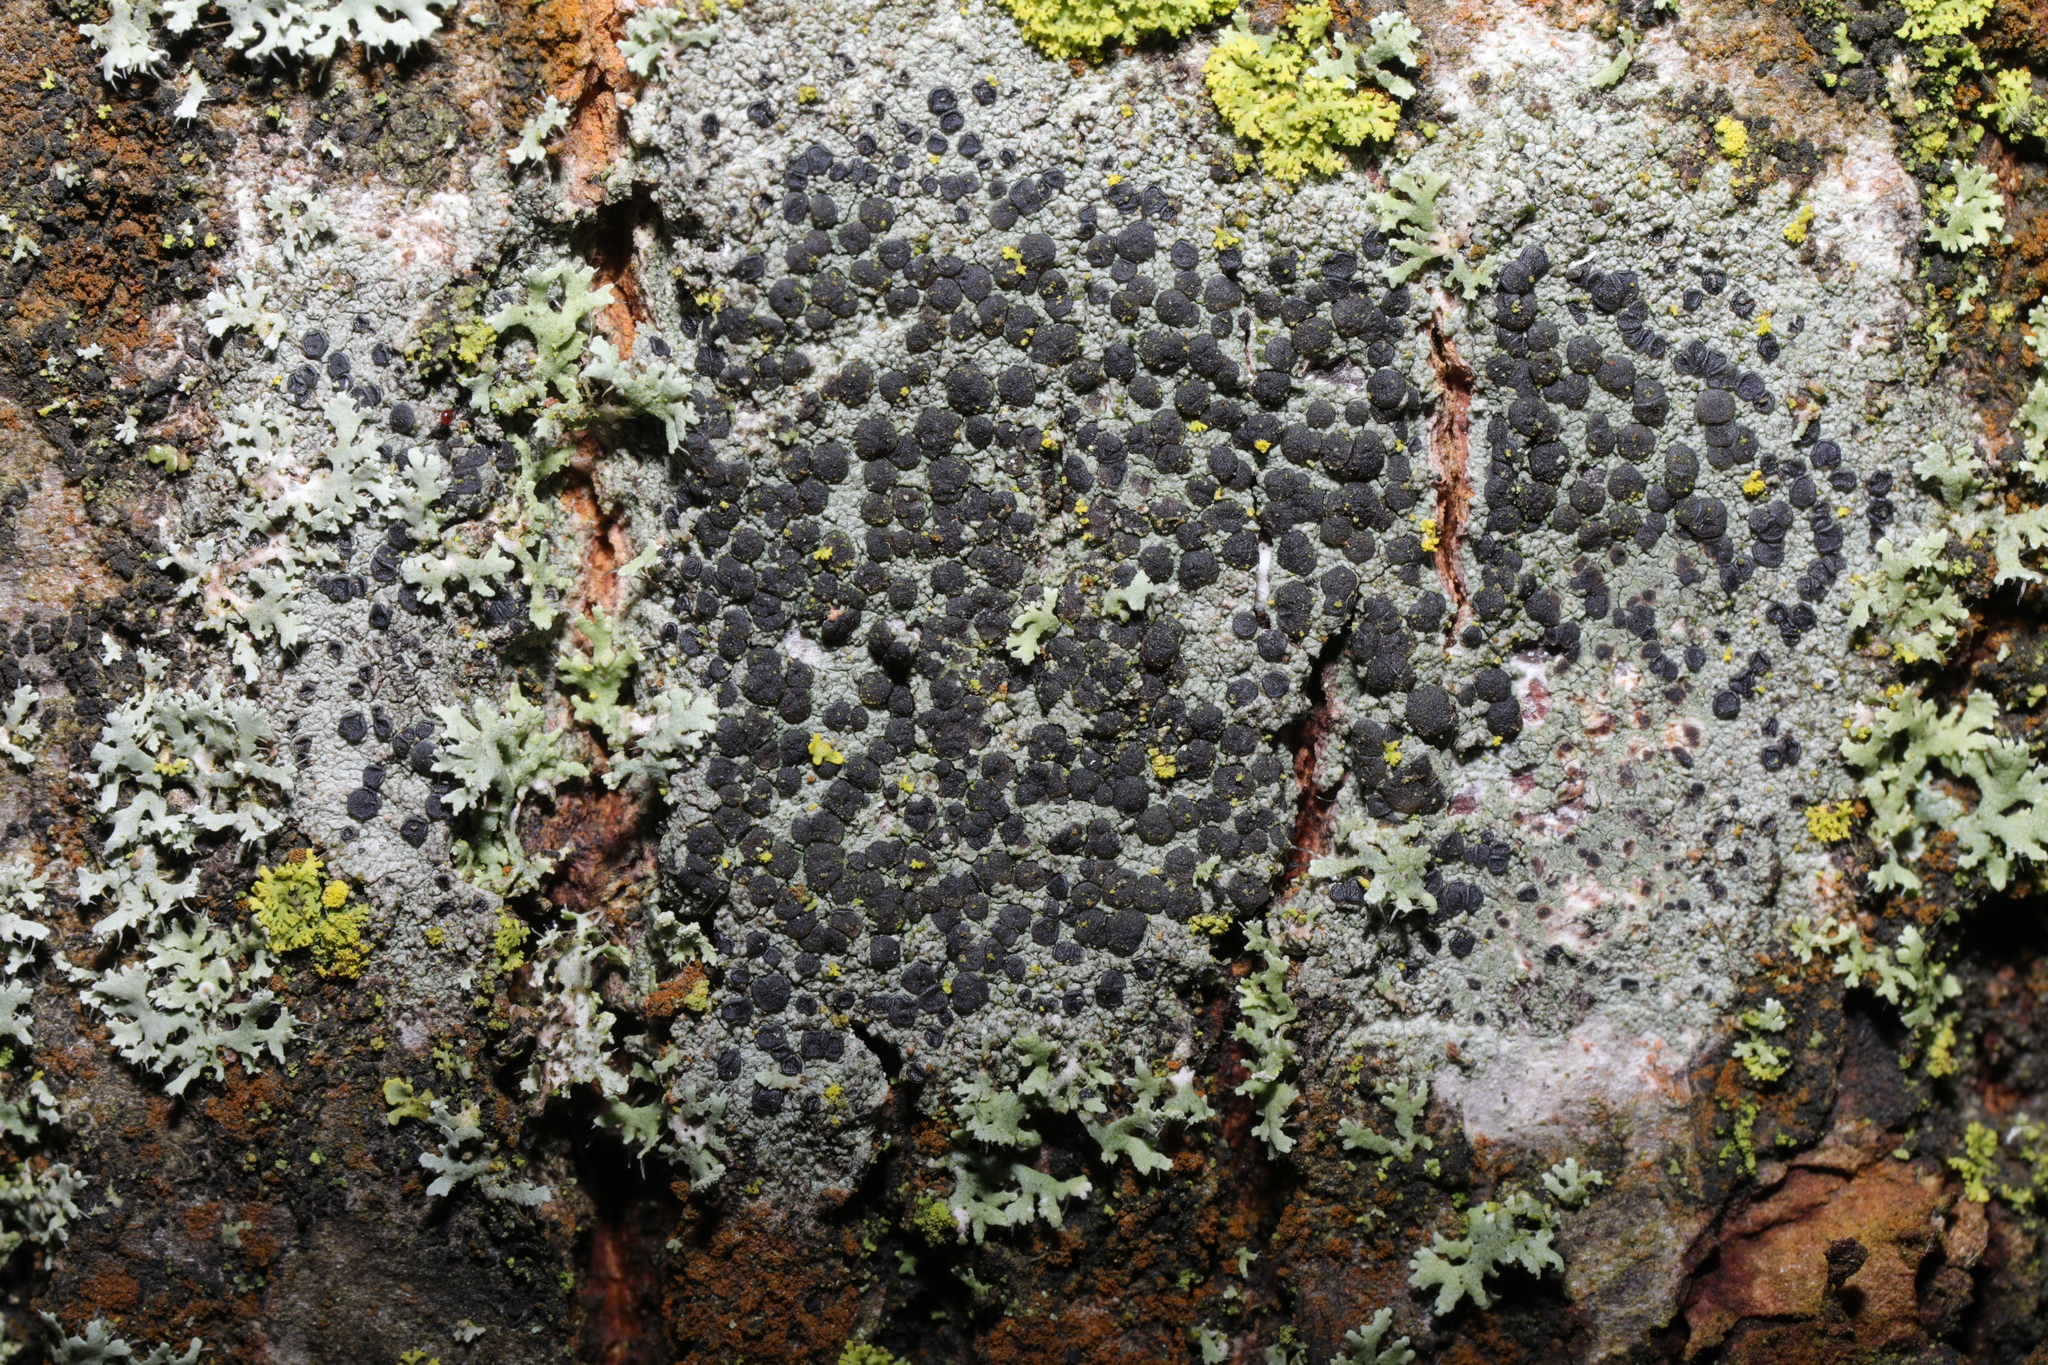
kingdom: Fungi
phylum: Ascomycota
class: Lecanoromycetes
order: Lecanorales
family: Lecanoraceae
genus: Lecidella
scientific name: Lecidella elaeochroma
